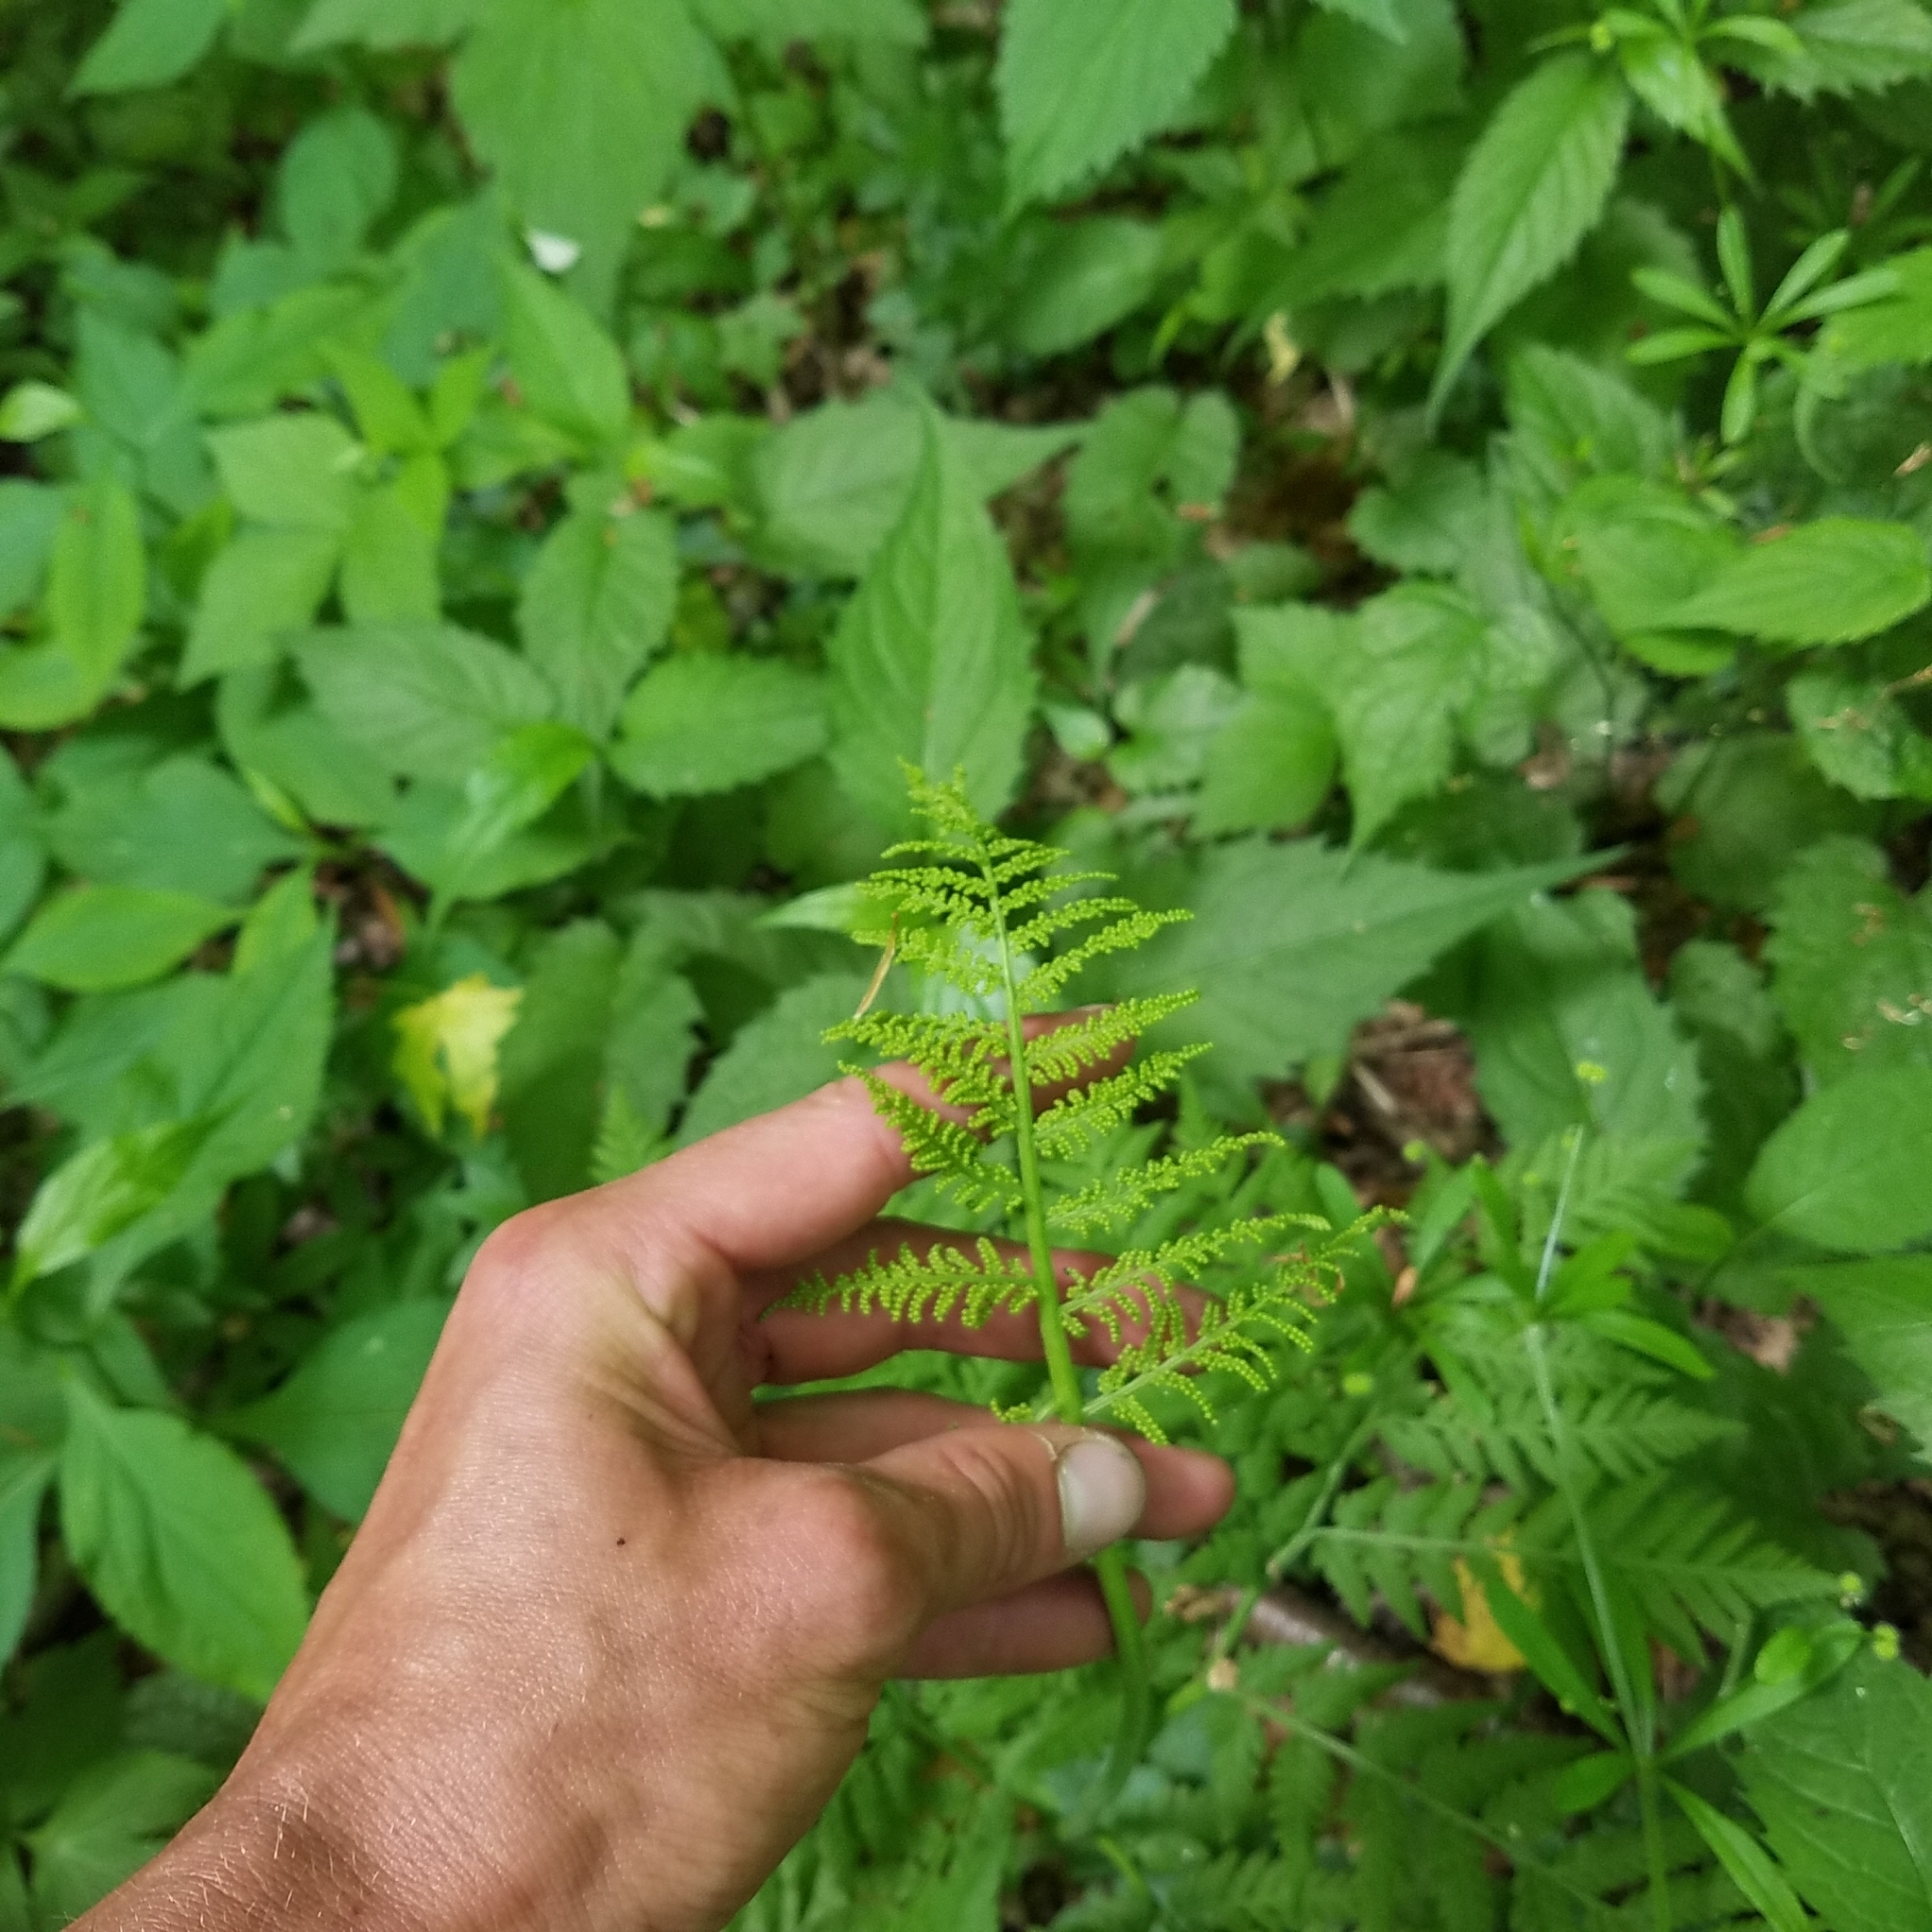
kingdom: Plantae
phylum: Tracheophyta
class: Polypodiopsida
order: Ophioglossales
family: Ophioglossaceae
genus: Botrypus
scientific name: Botrypus virginianus
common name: Common grapefern
